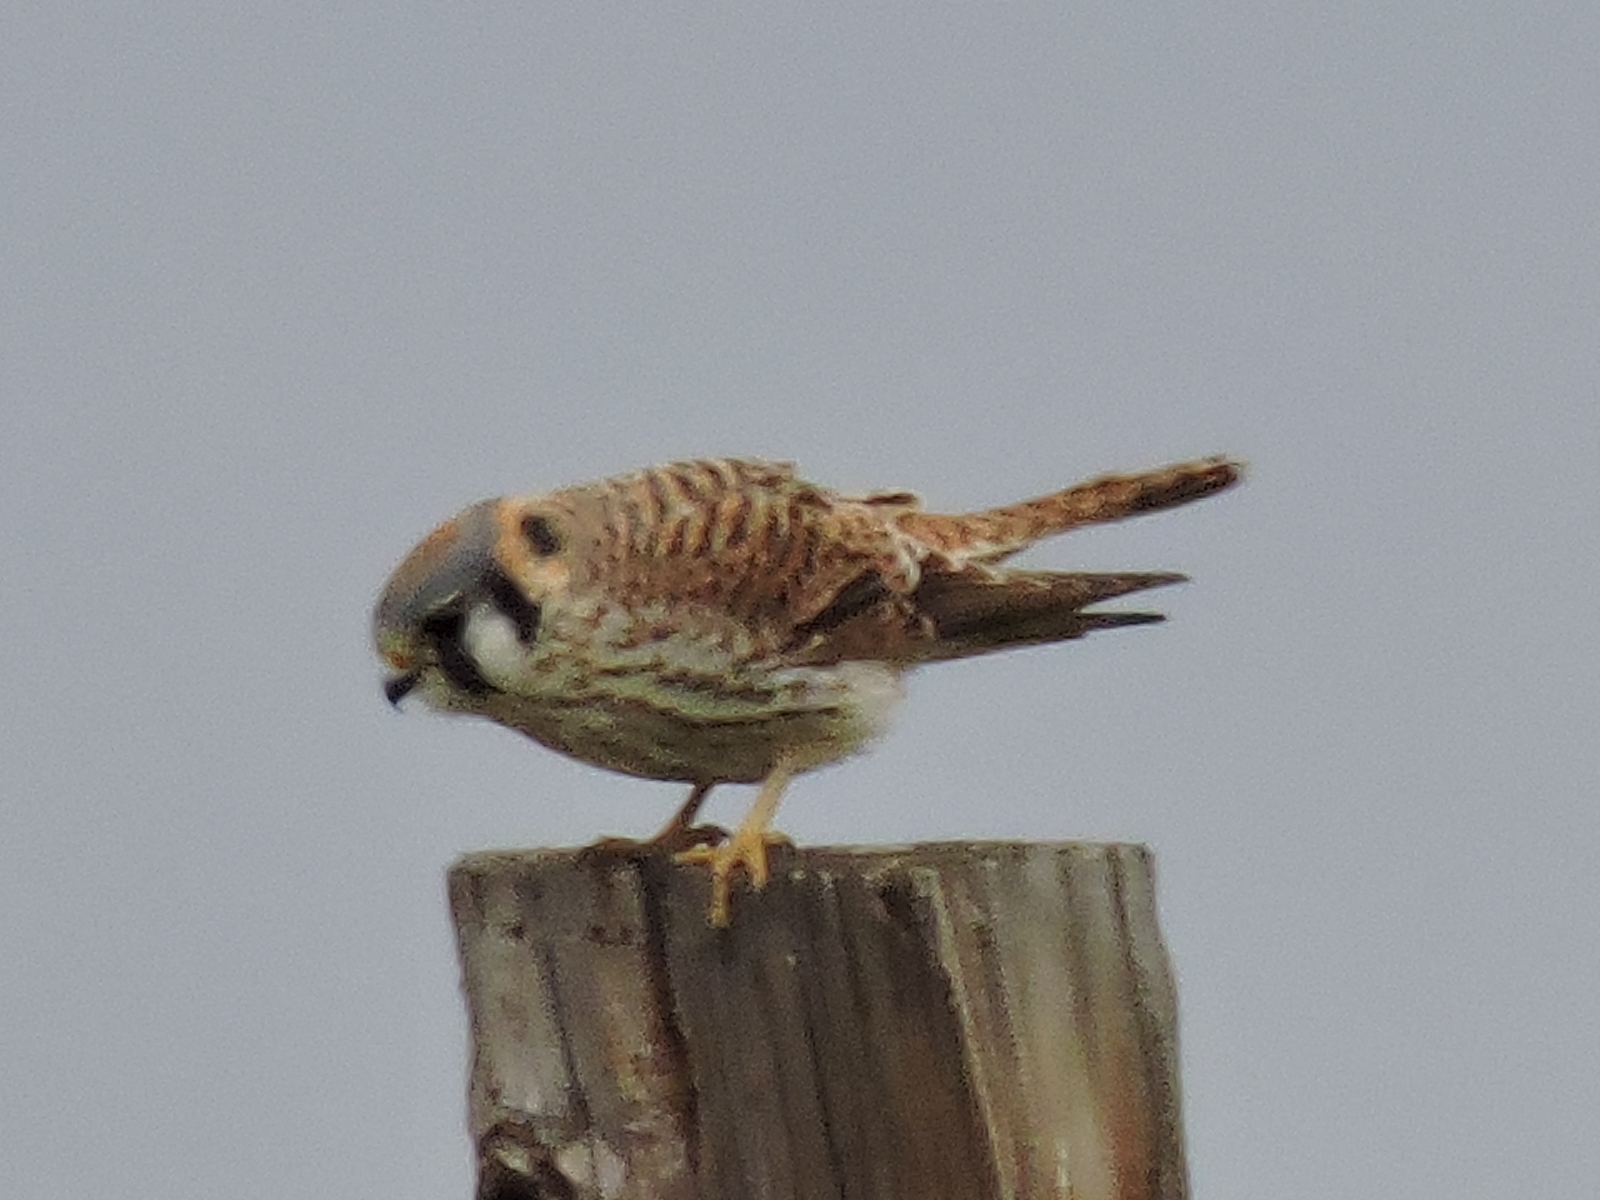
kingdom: Animalia
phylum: Chordata
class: Aves
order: Falconiformes
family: Falconidae
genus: Falco
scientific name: Falco sparverius
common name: American kestrel
